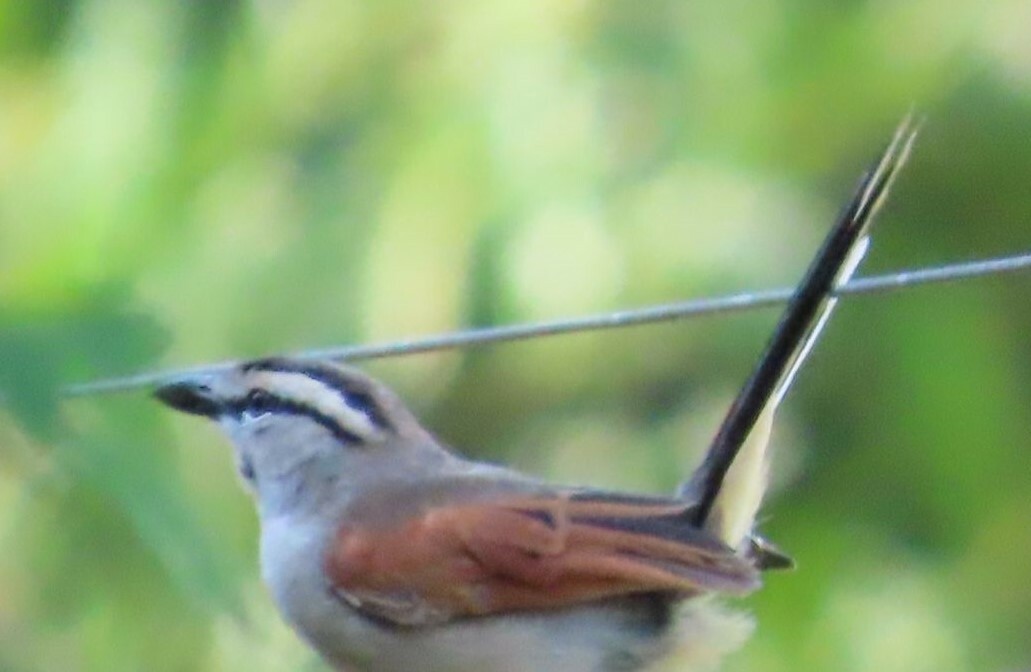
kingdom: Animalia
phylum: Chordata
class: Aves
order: Passeriformes
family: Malaconotidae
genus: Tchagra
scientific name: Tchagra australis
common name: Brown-crowned tchagra
